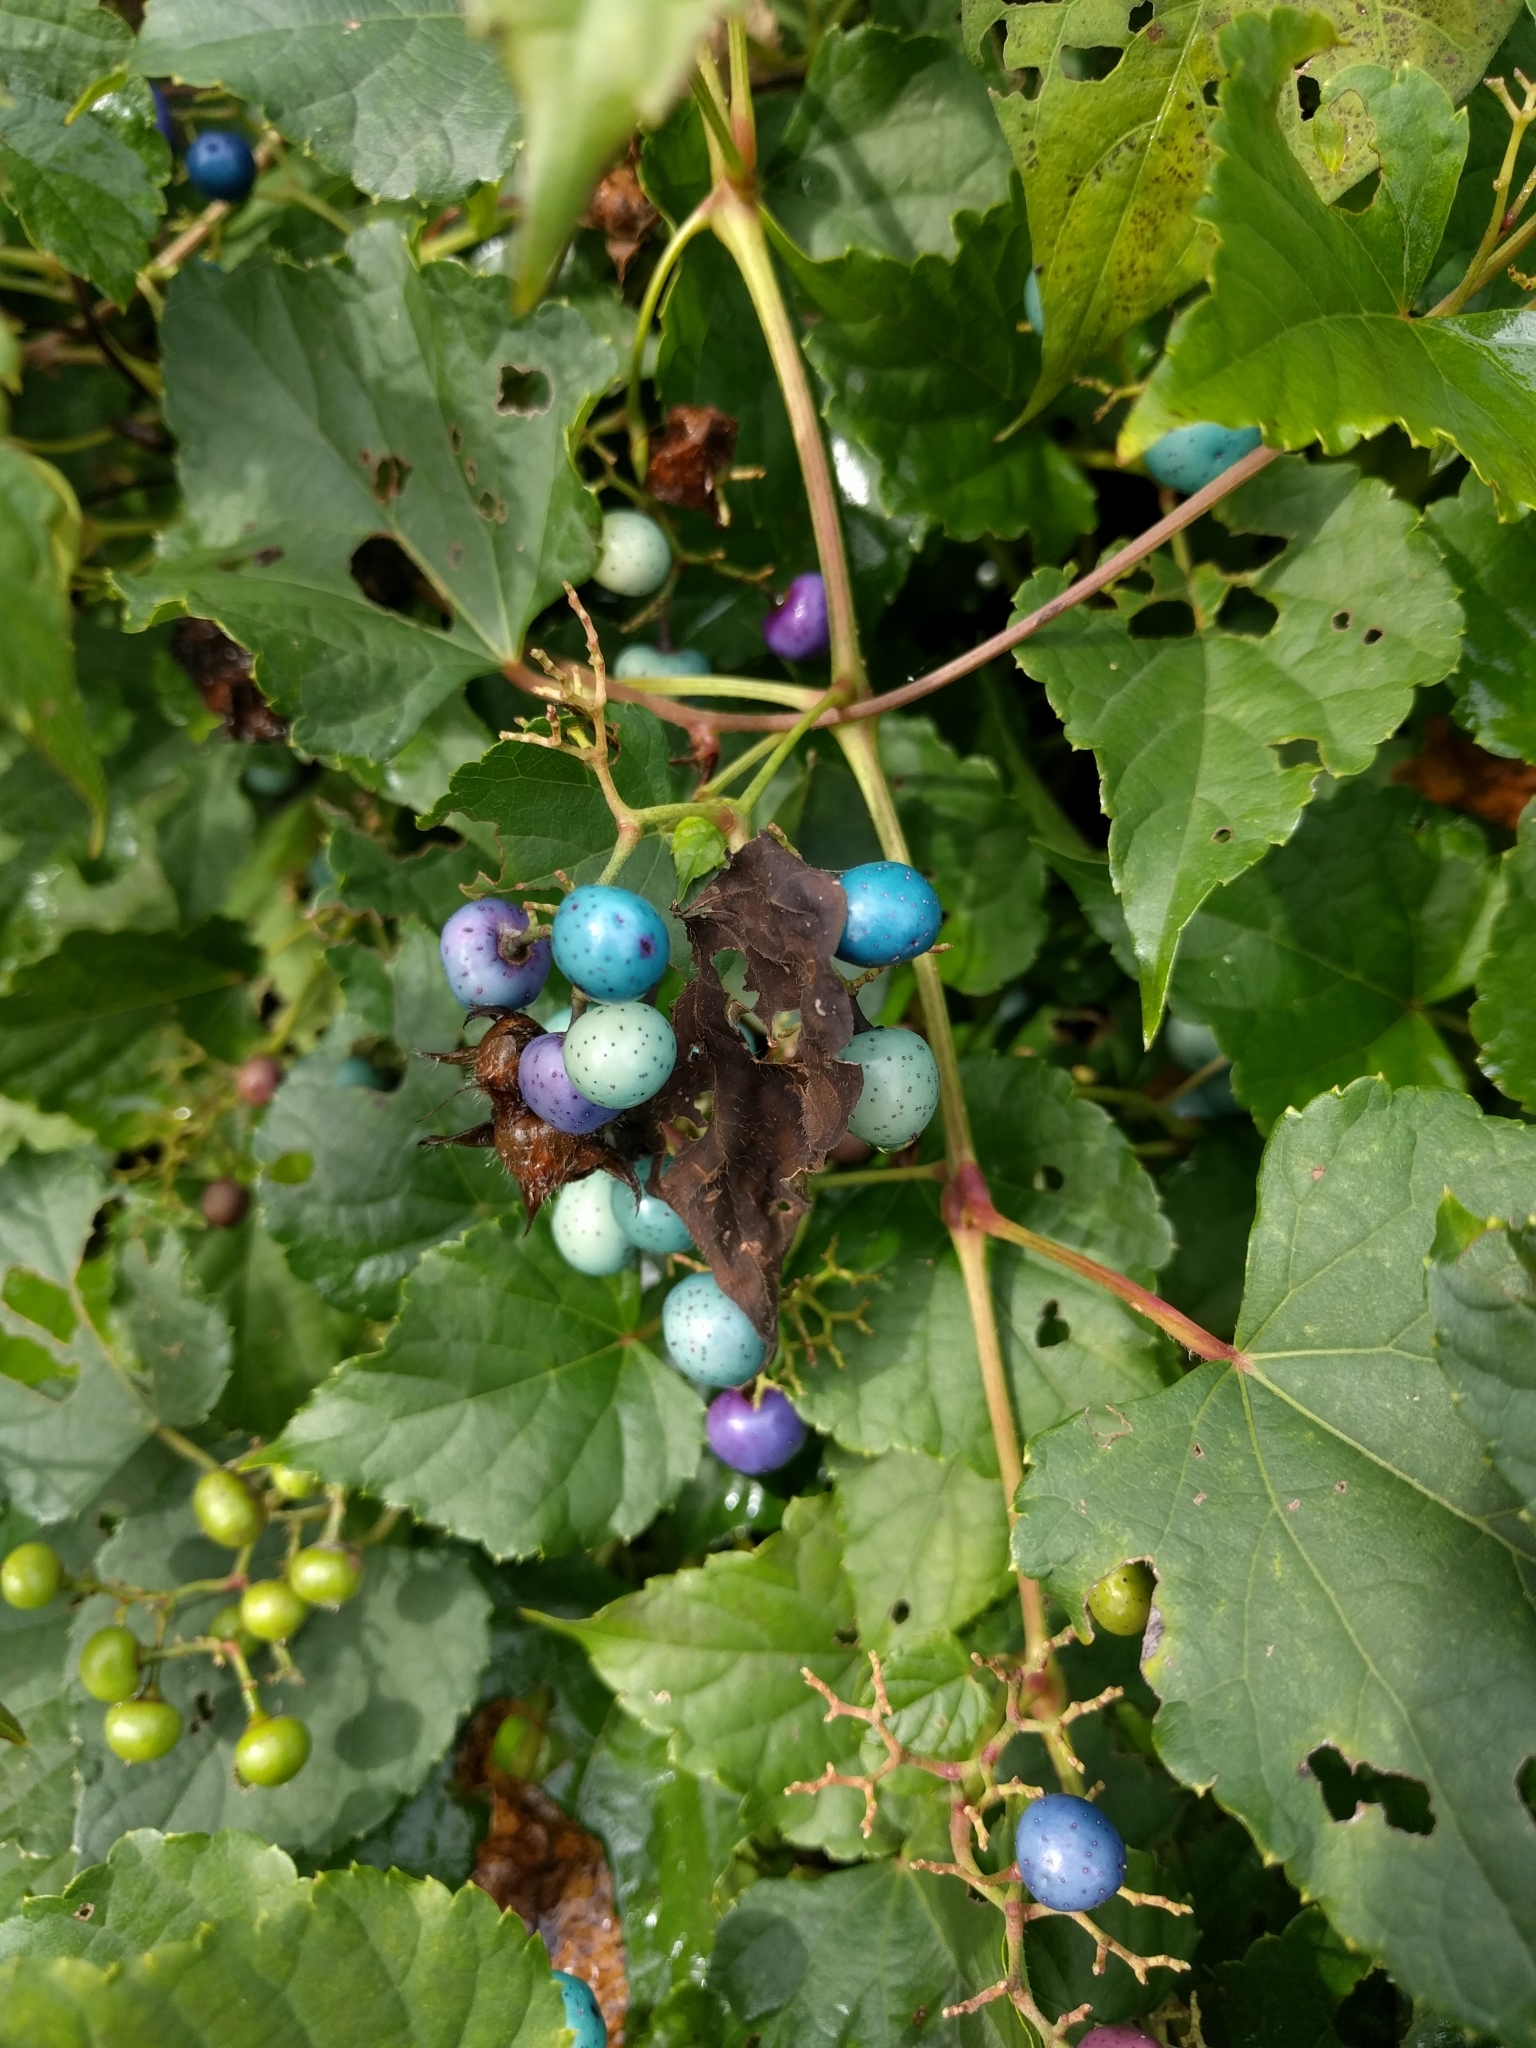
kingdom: Plantae
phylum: Tracheophyta
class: Magnoliopsida
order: Vitales
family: Vitaceae
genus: Ampelopsis
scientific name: Ampelopsis glandulosa
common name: Amur peppervine
